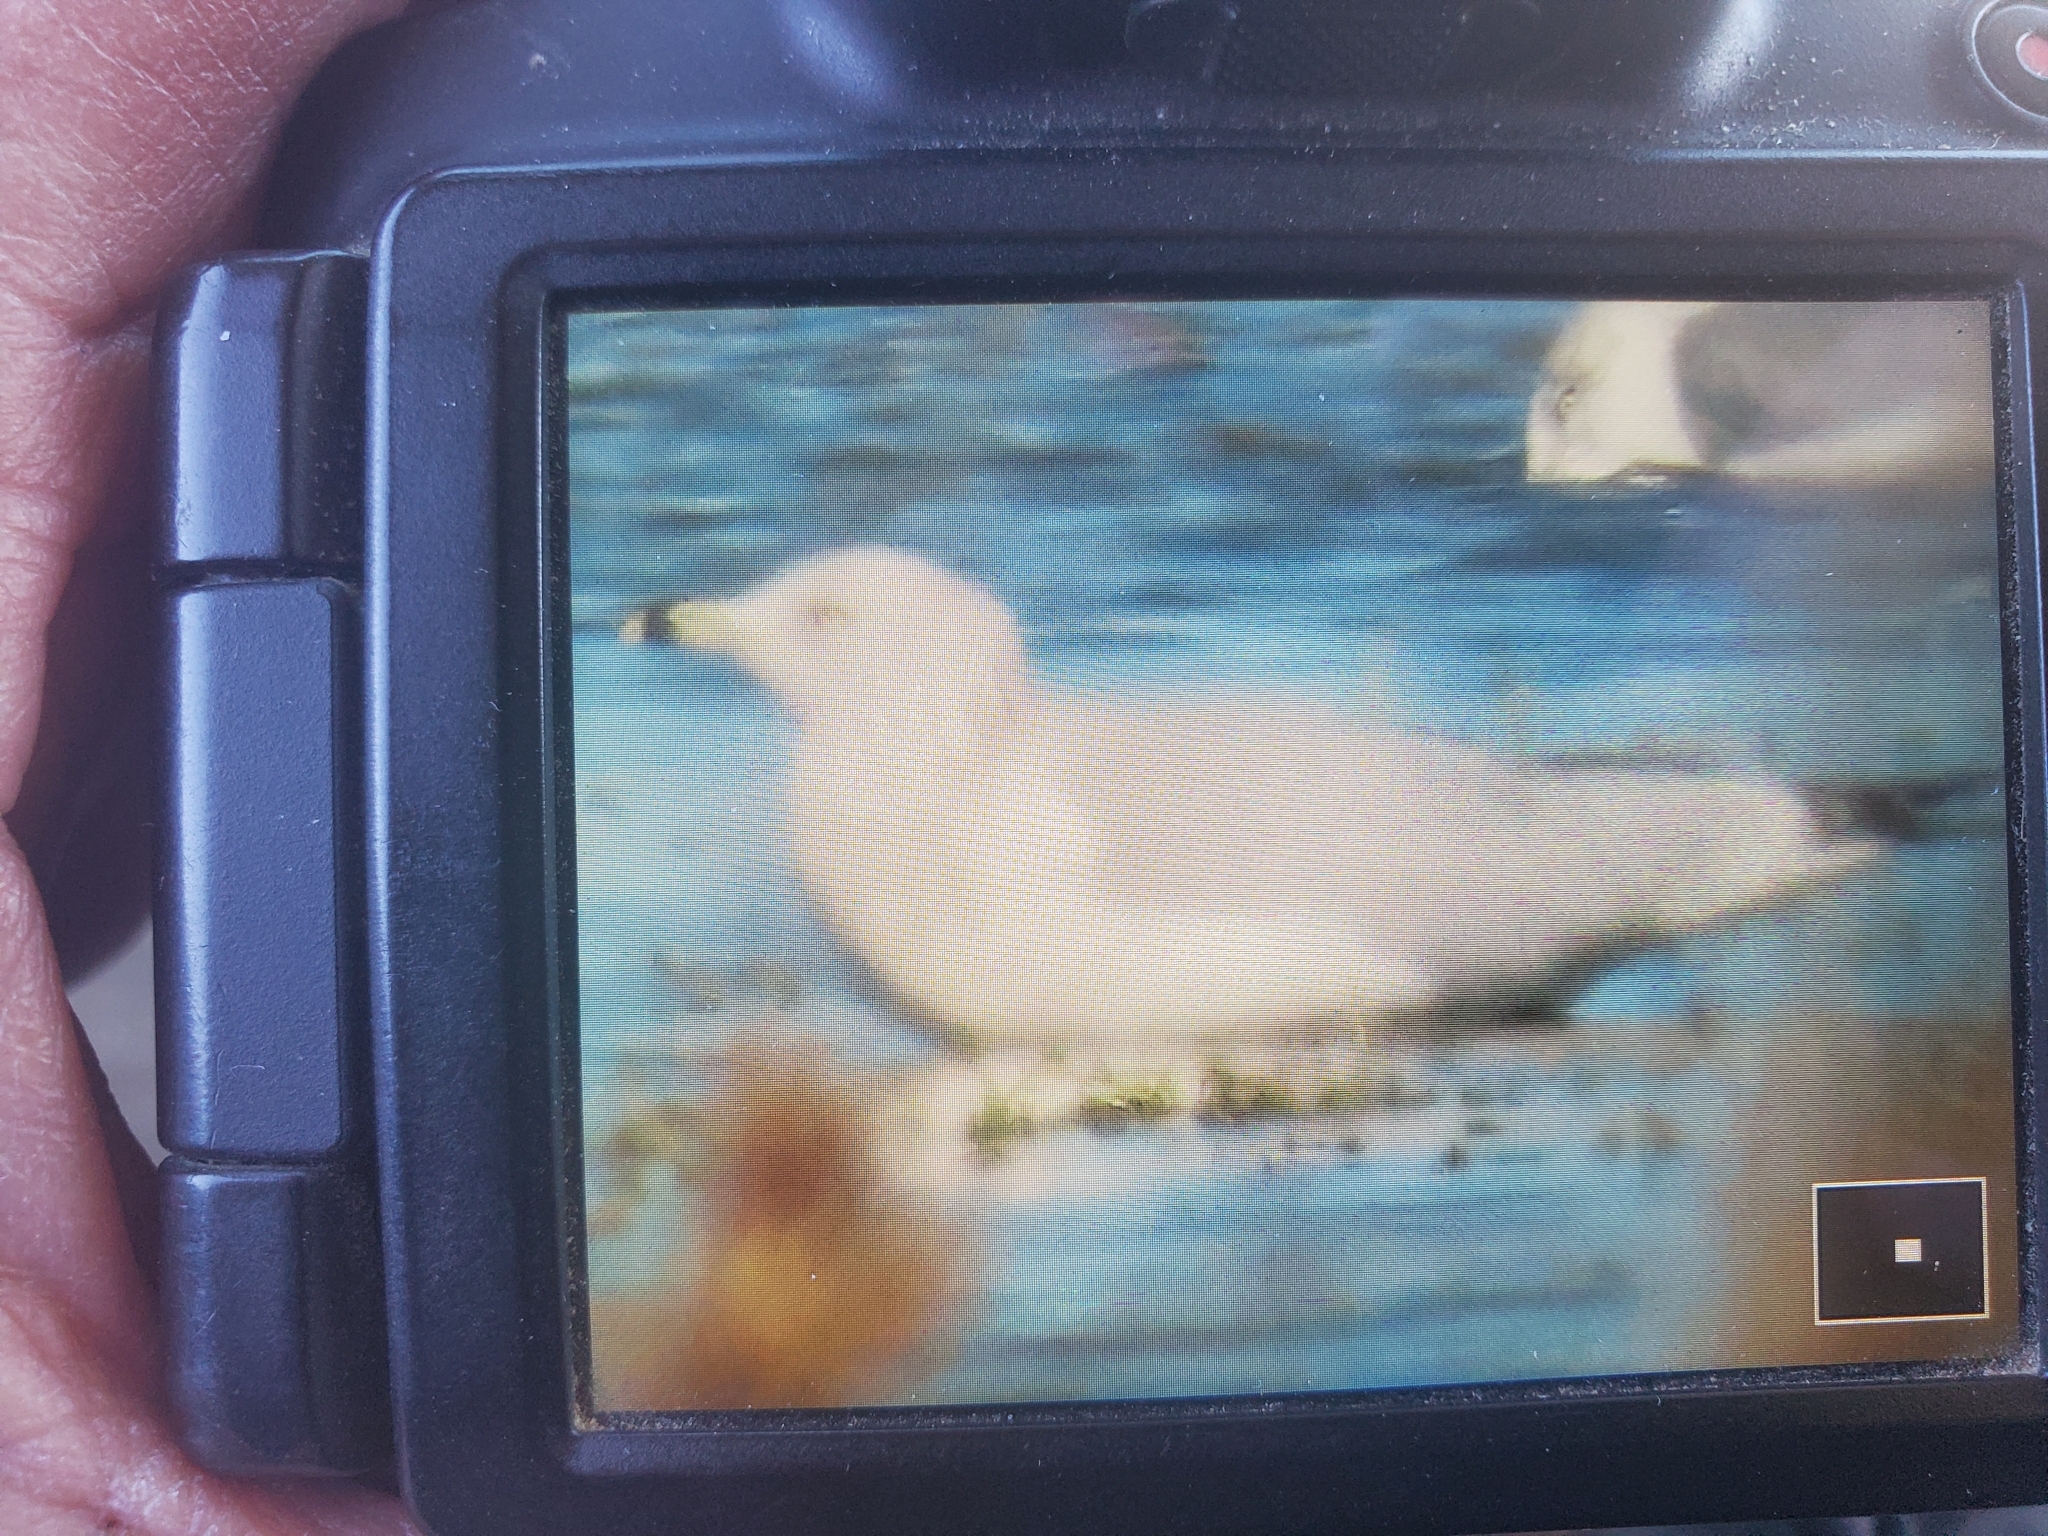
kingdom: Animalia
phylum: Chordata
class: Aves
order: Charadriiformes
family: Laridae
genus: Larus
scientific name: Larus delawarensis
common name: Ring-billed gull
